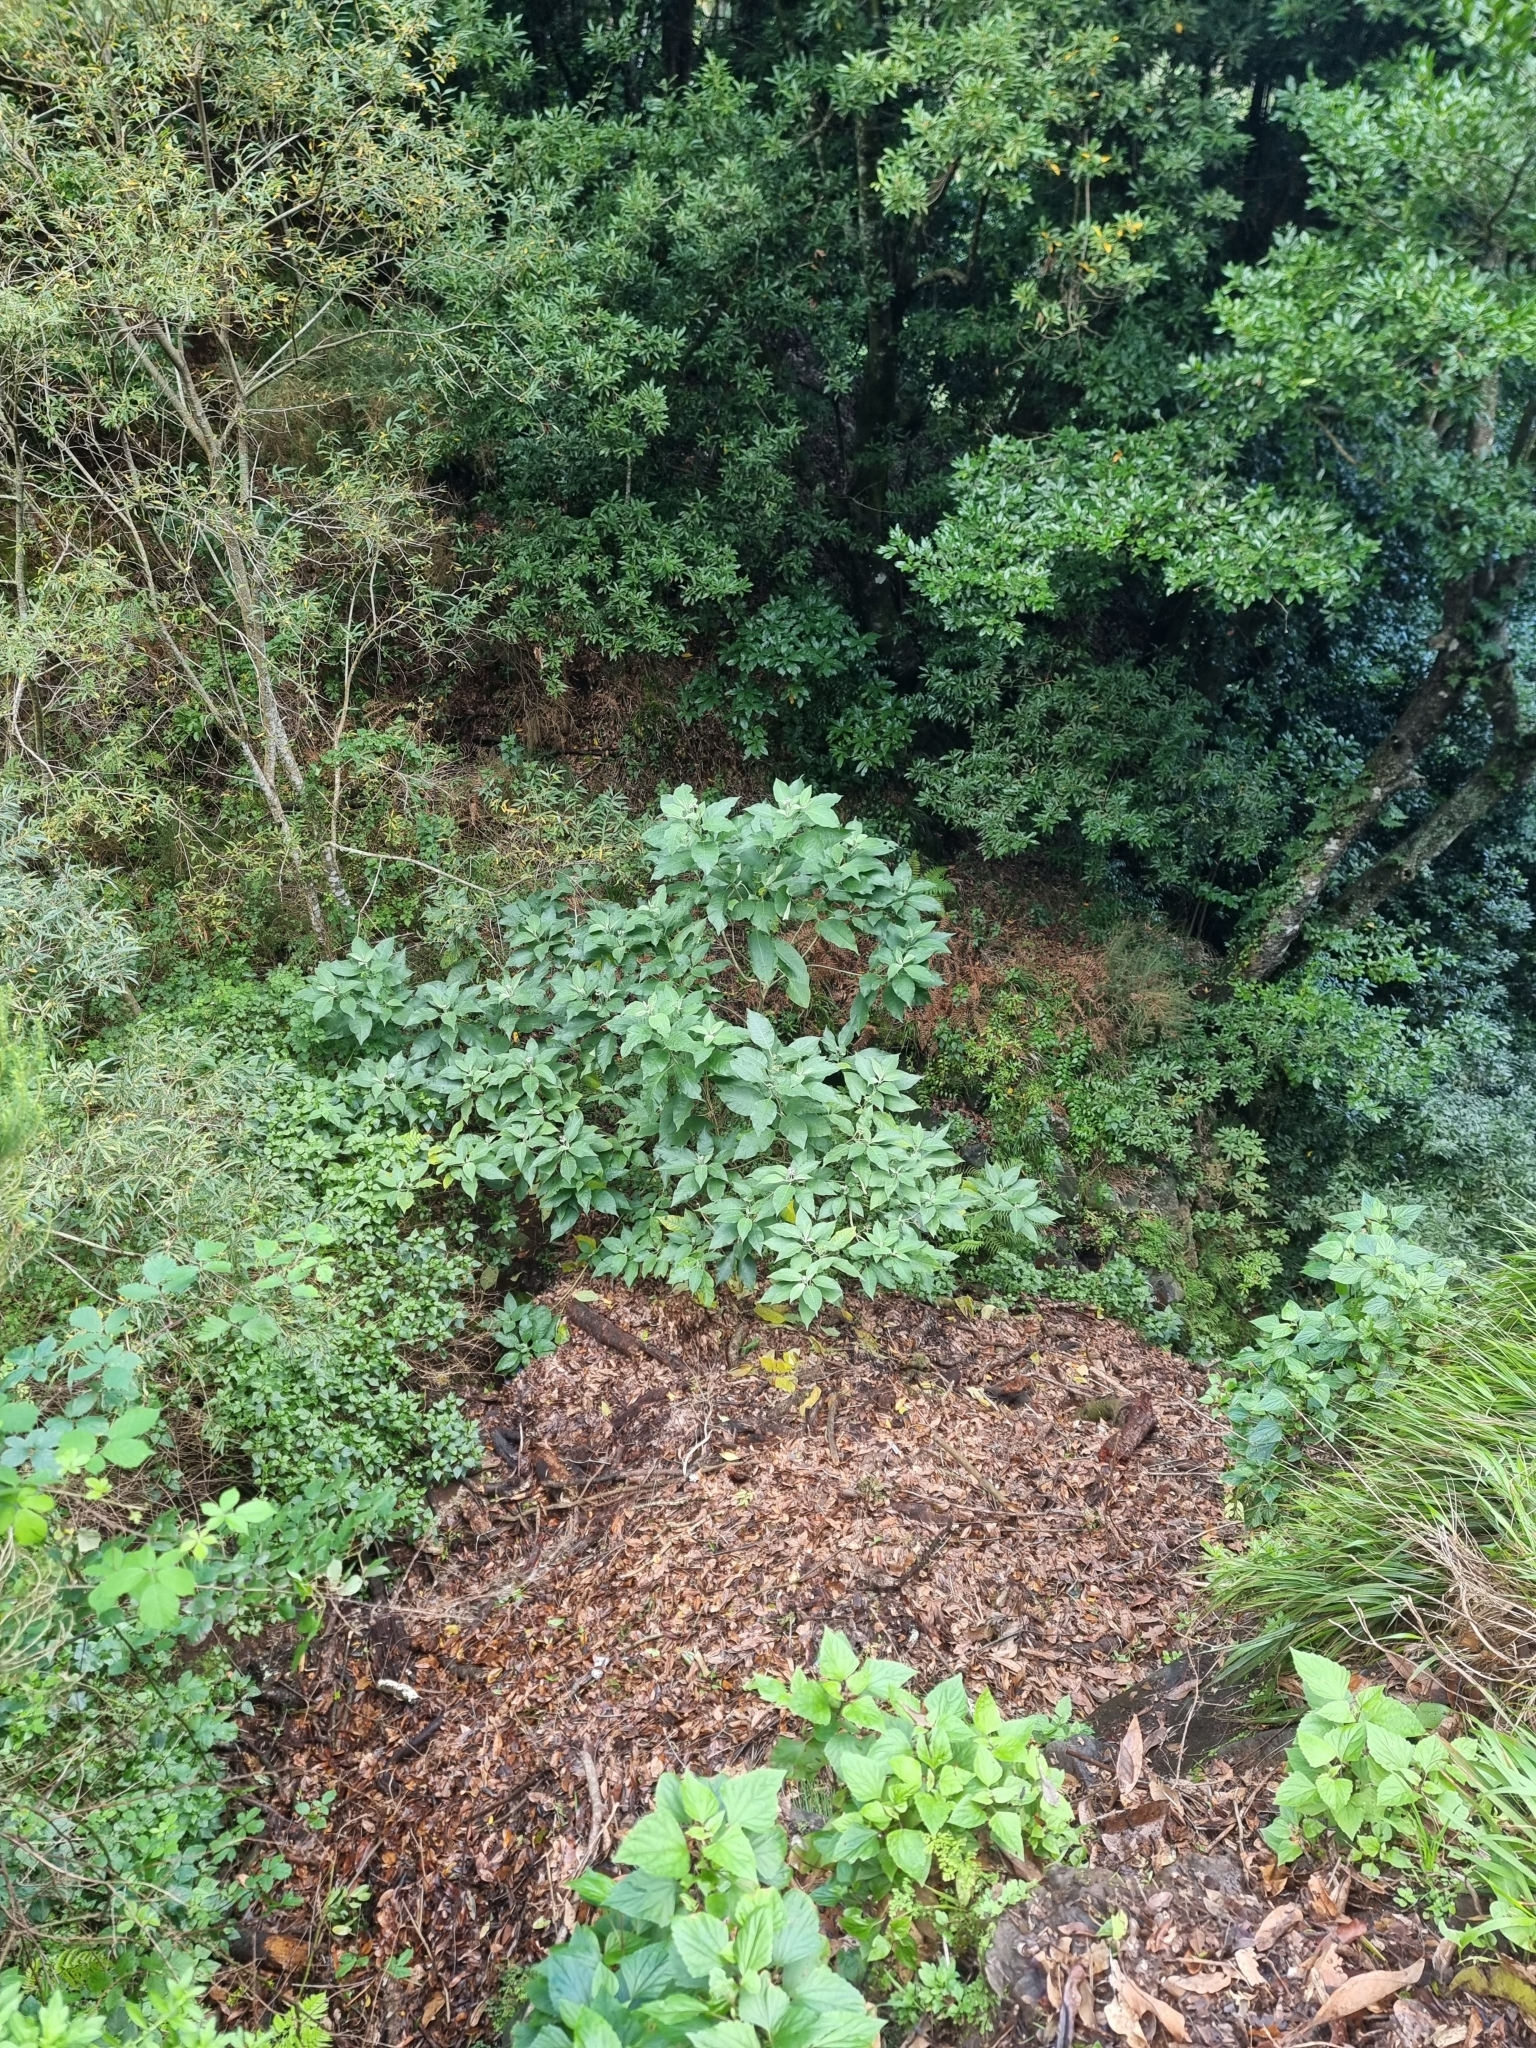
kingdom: Plantae
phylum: Tracheophyta
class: Magnoliopsida
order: Solanales
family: Solanaceae
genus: Solanum
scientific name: Solanum mauritianum
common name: Earleaf nightshade
